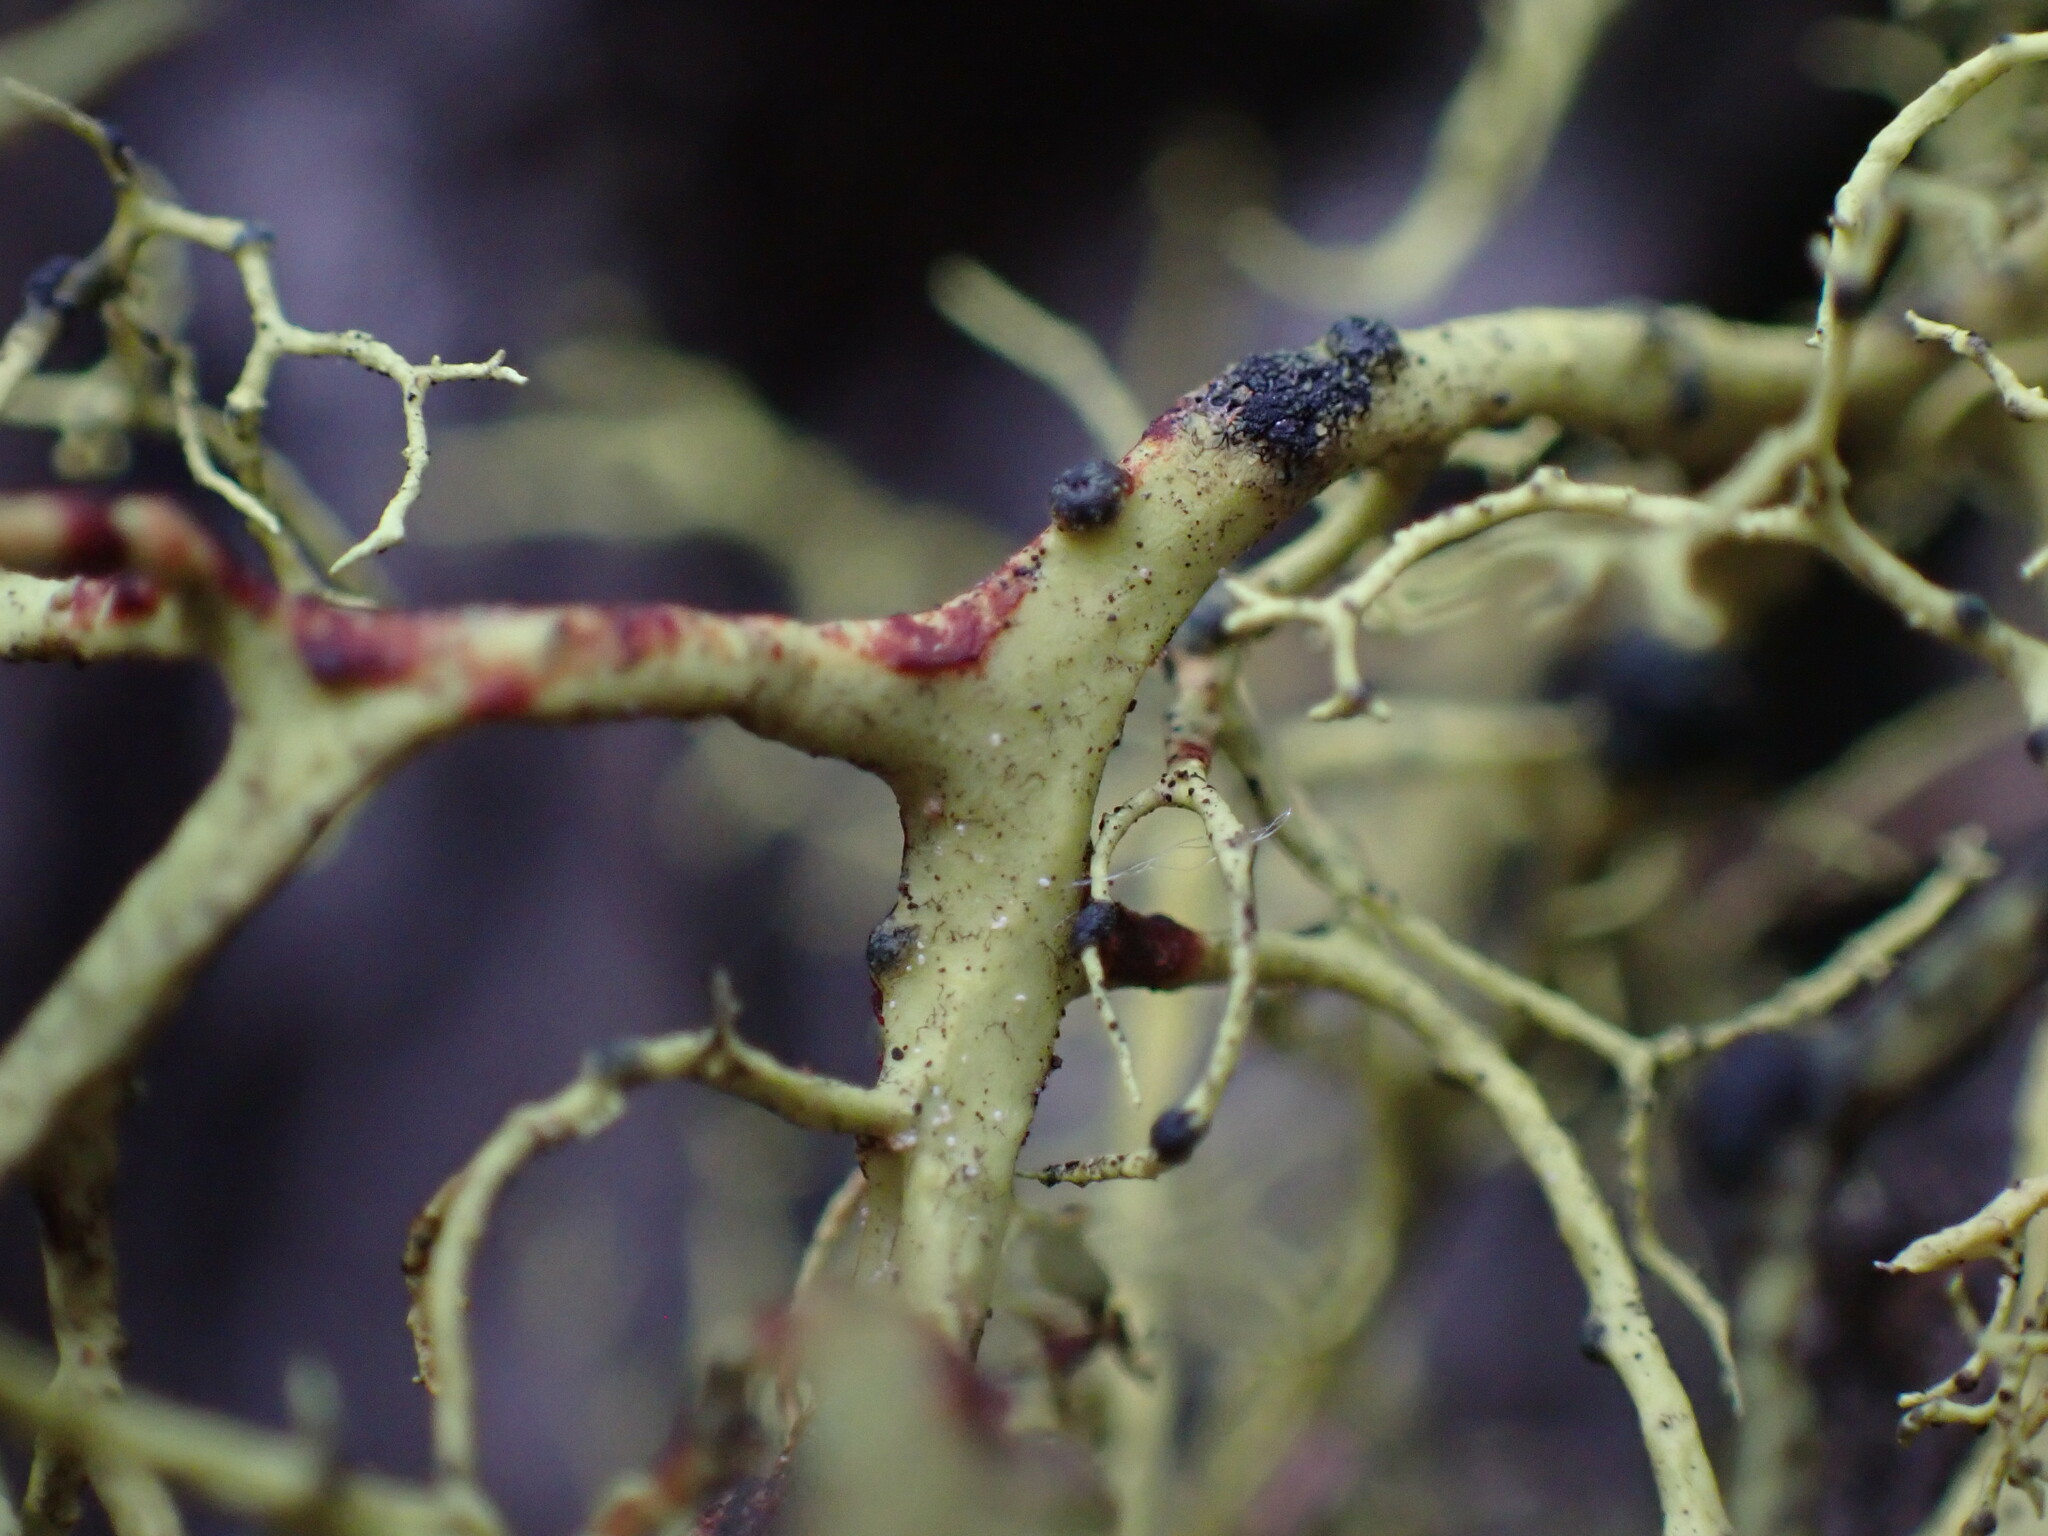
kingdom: Fungi
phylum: Ascomycota
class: Lecanoromycetes
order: Lecanorales
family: Parmeliaceae
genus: Phacopsis
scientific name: Phacopsis vulpina
